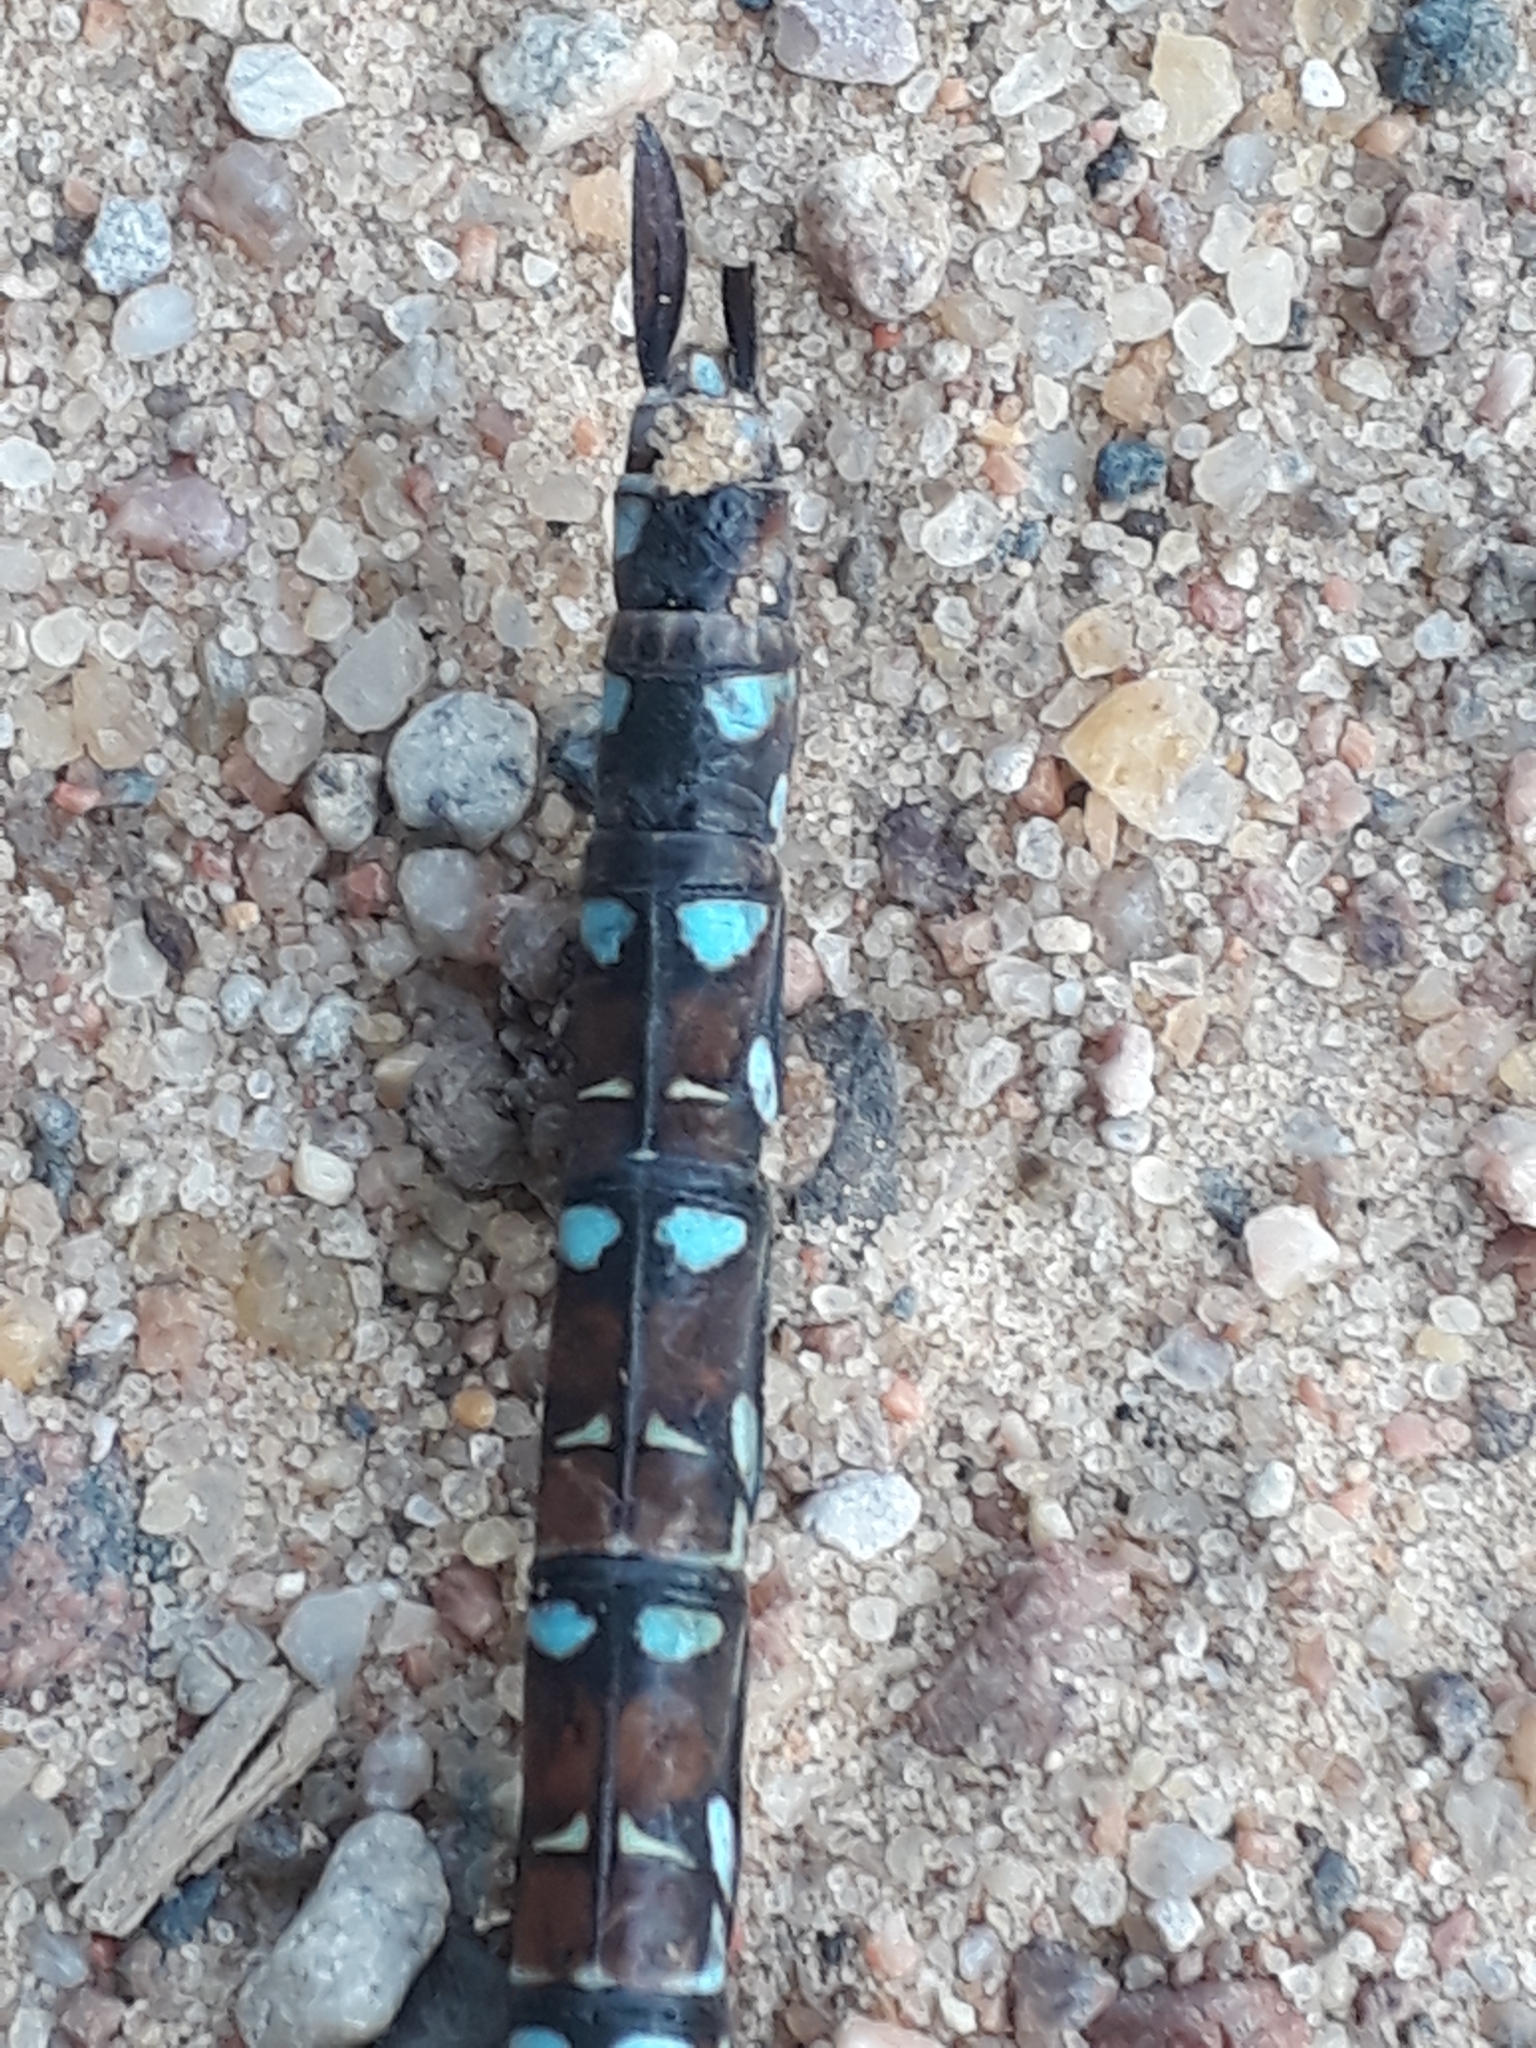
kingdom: Animalia
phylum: Arthropoda
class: Insecta
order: Odonata
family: Aeshnidae
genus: Aeshna
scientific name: Aeshna juncea
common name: Moorland hawker
